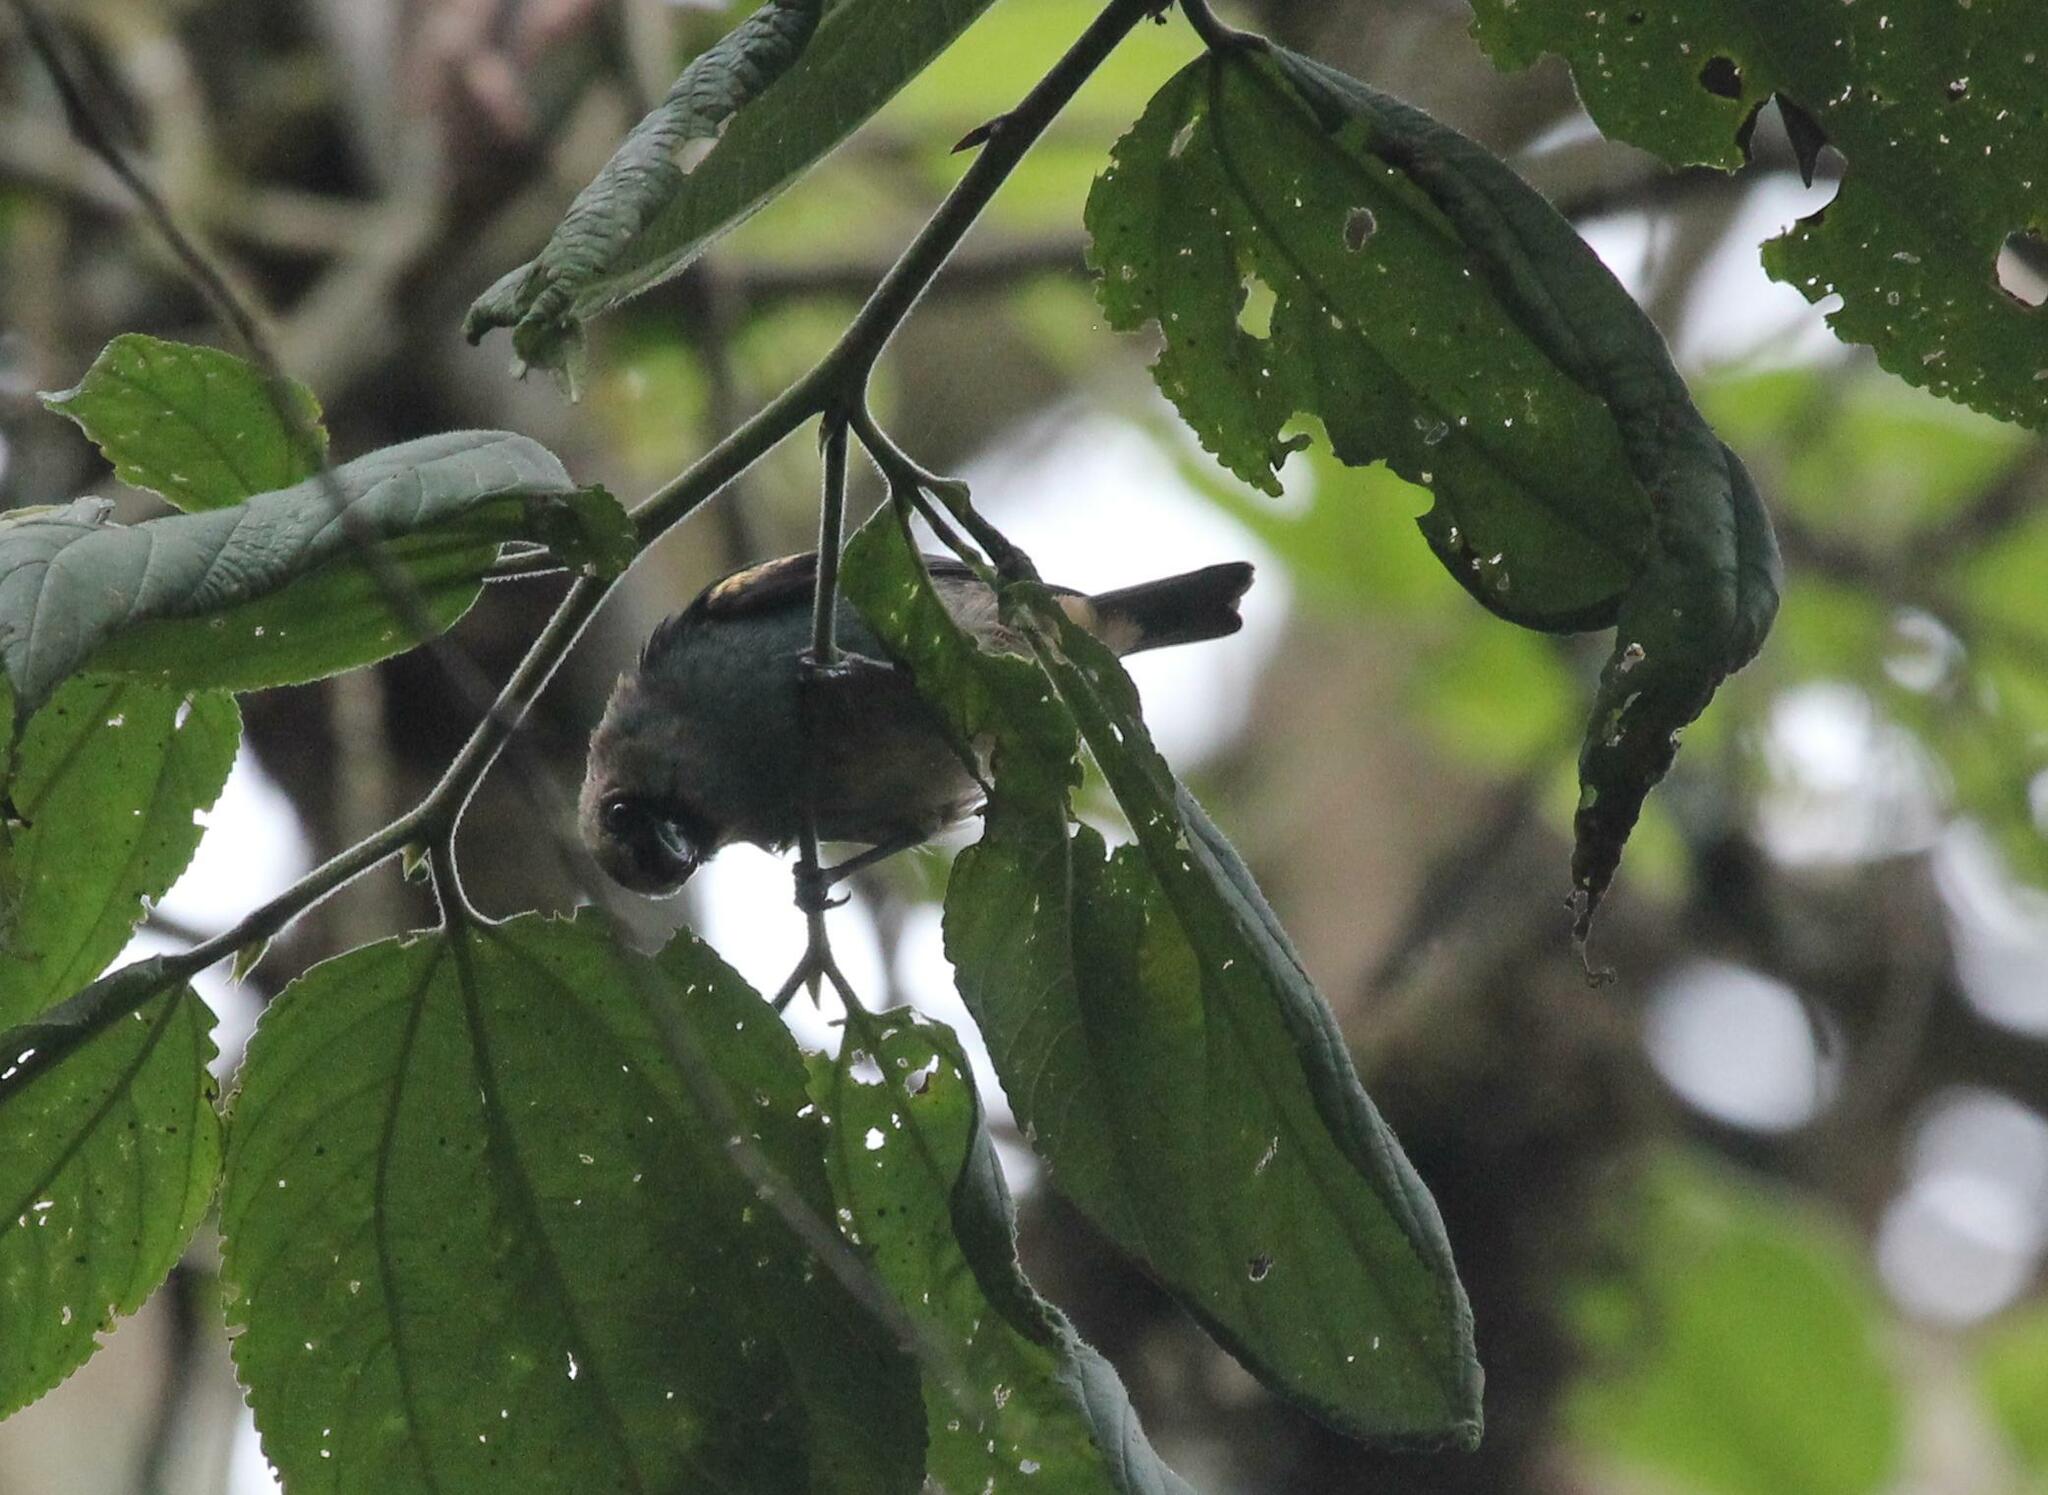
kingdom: Animalia
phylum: Chordata
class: Aves
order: Passeriformes
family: Thraupidae
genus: Tangara
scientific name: Tangara labradorides
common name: Metallic-green tanager
